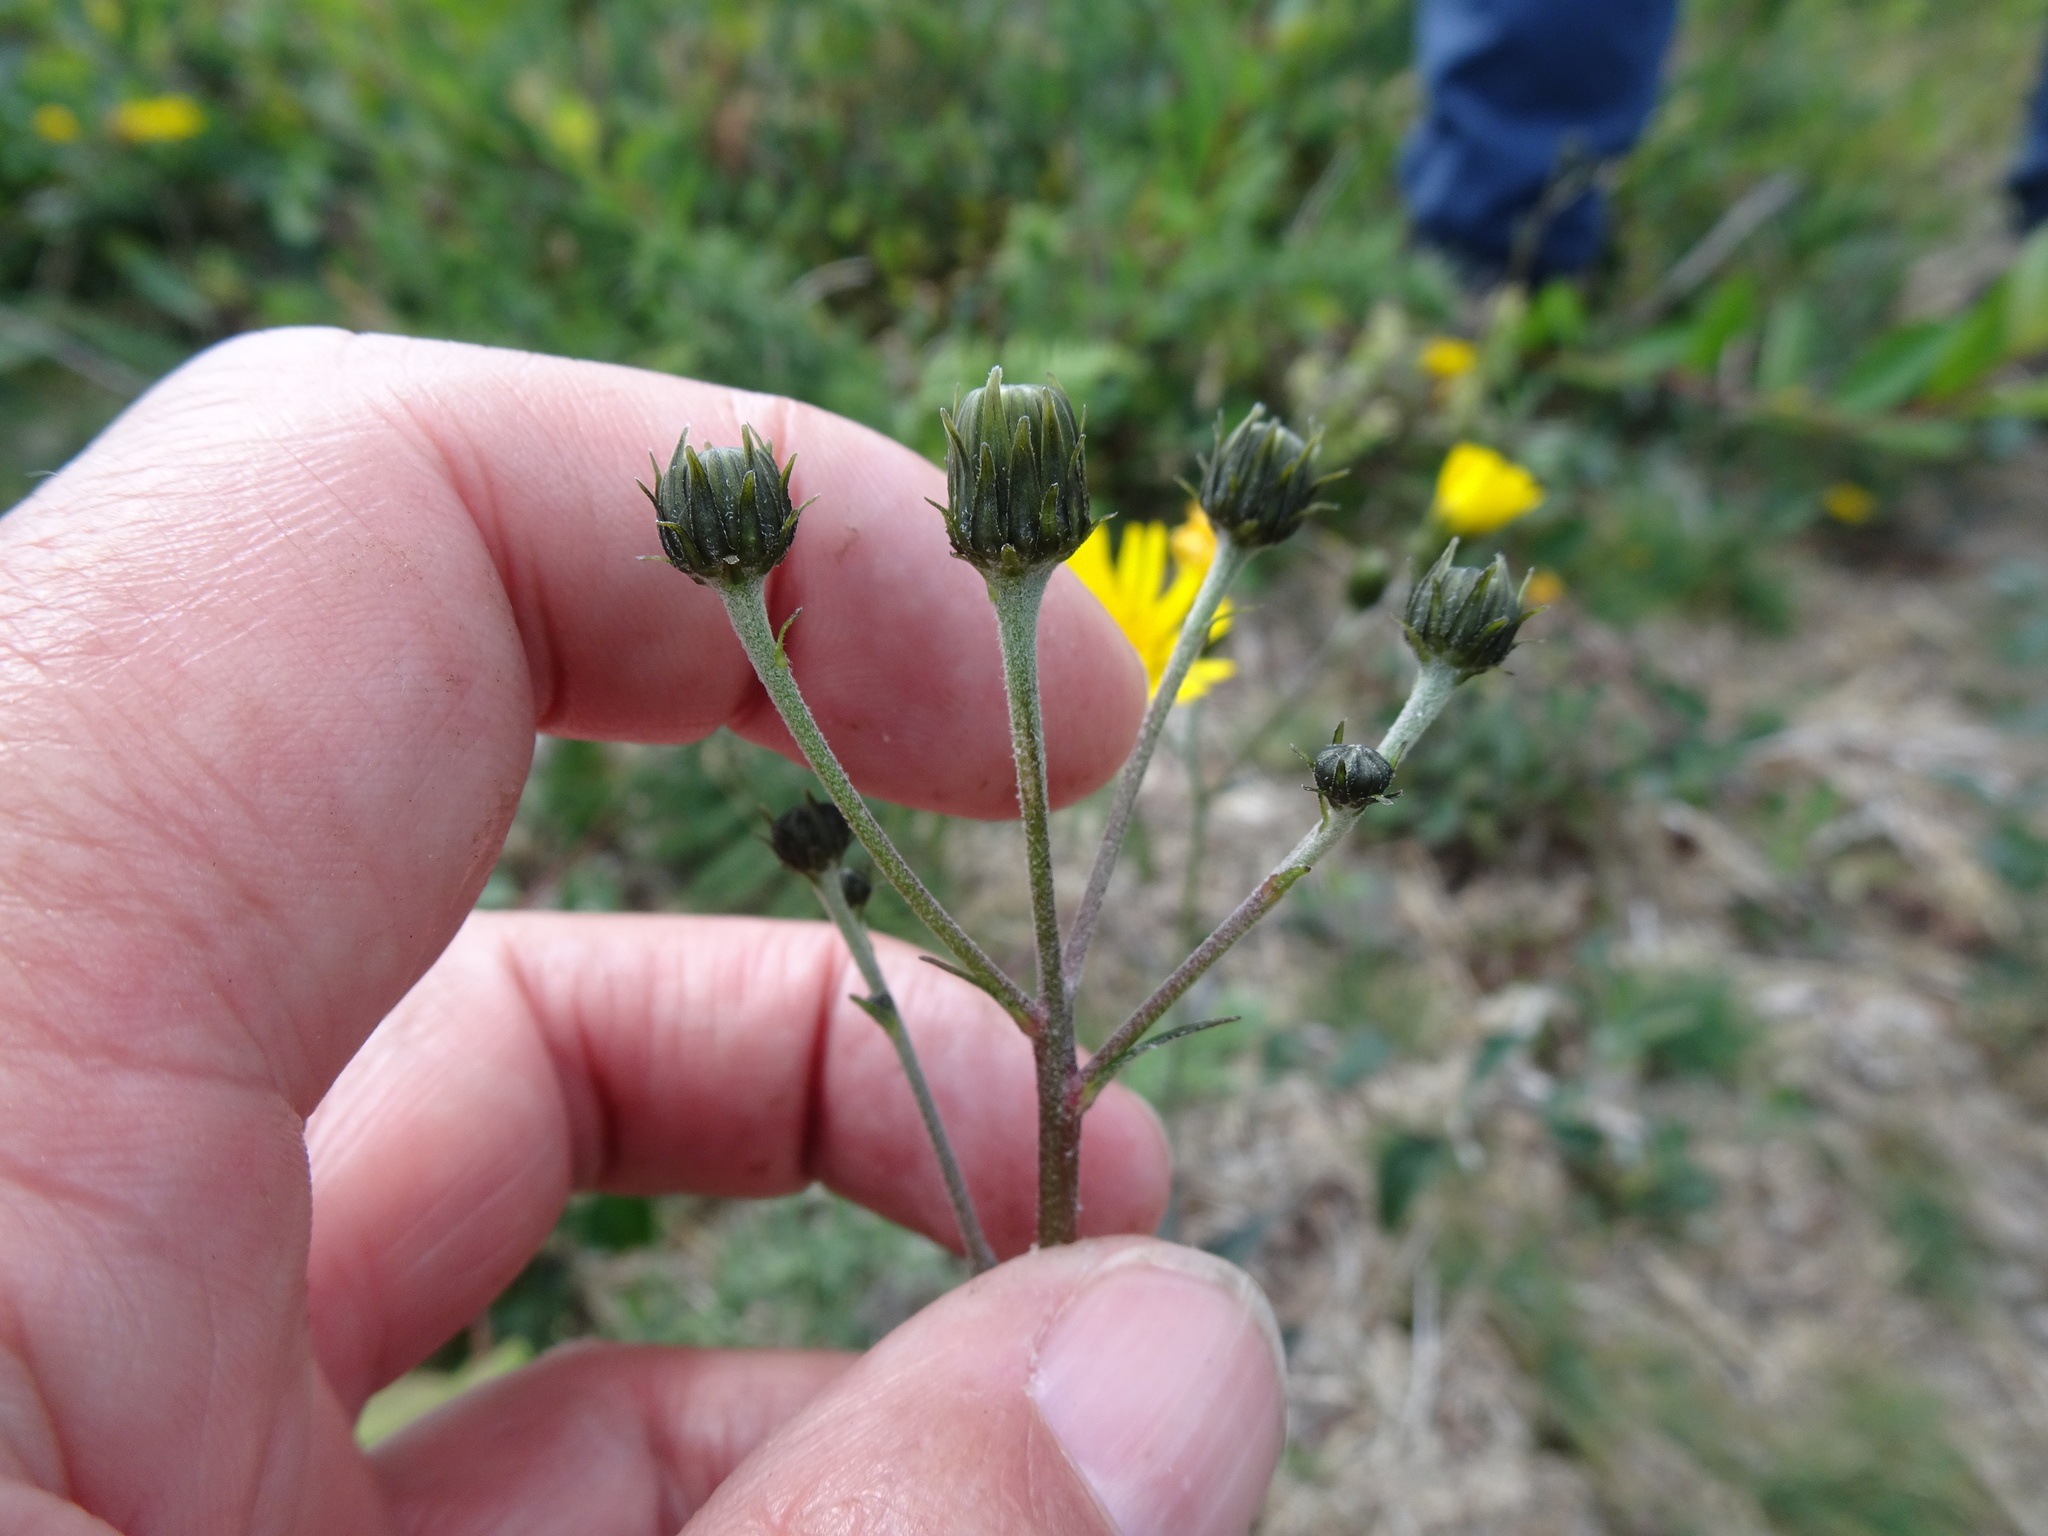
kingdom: Plantae
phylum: Tracheophyta
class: Magnoliopsida
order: Asterales
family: Asteraceae
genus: Hieracium
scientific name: Hieracium umbellatum
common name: Northern hawkweed
